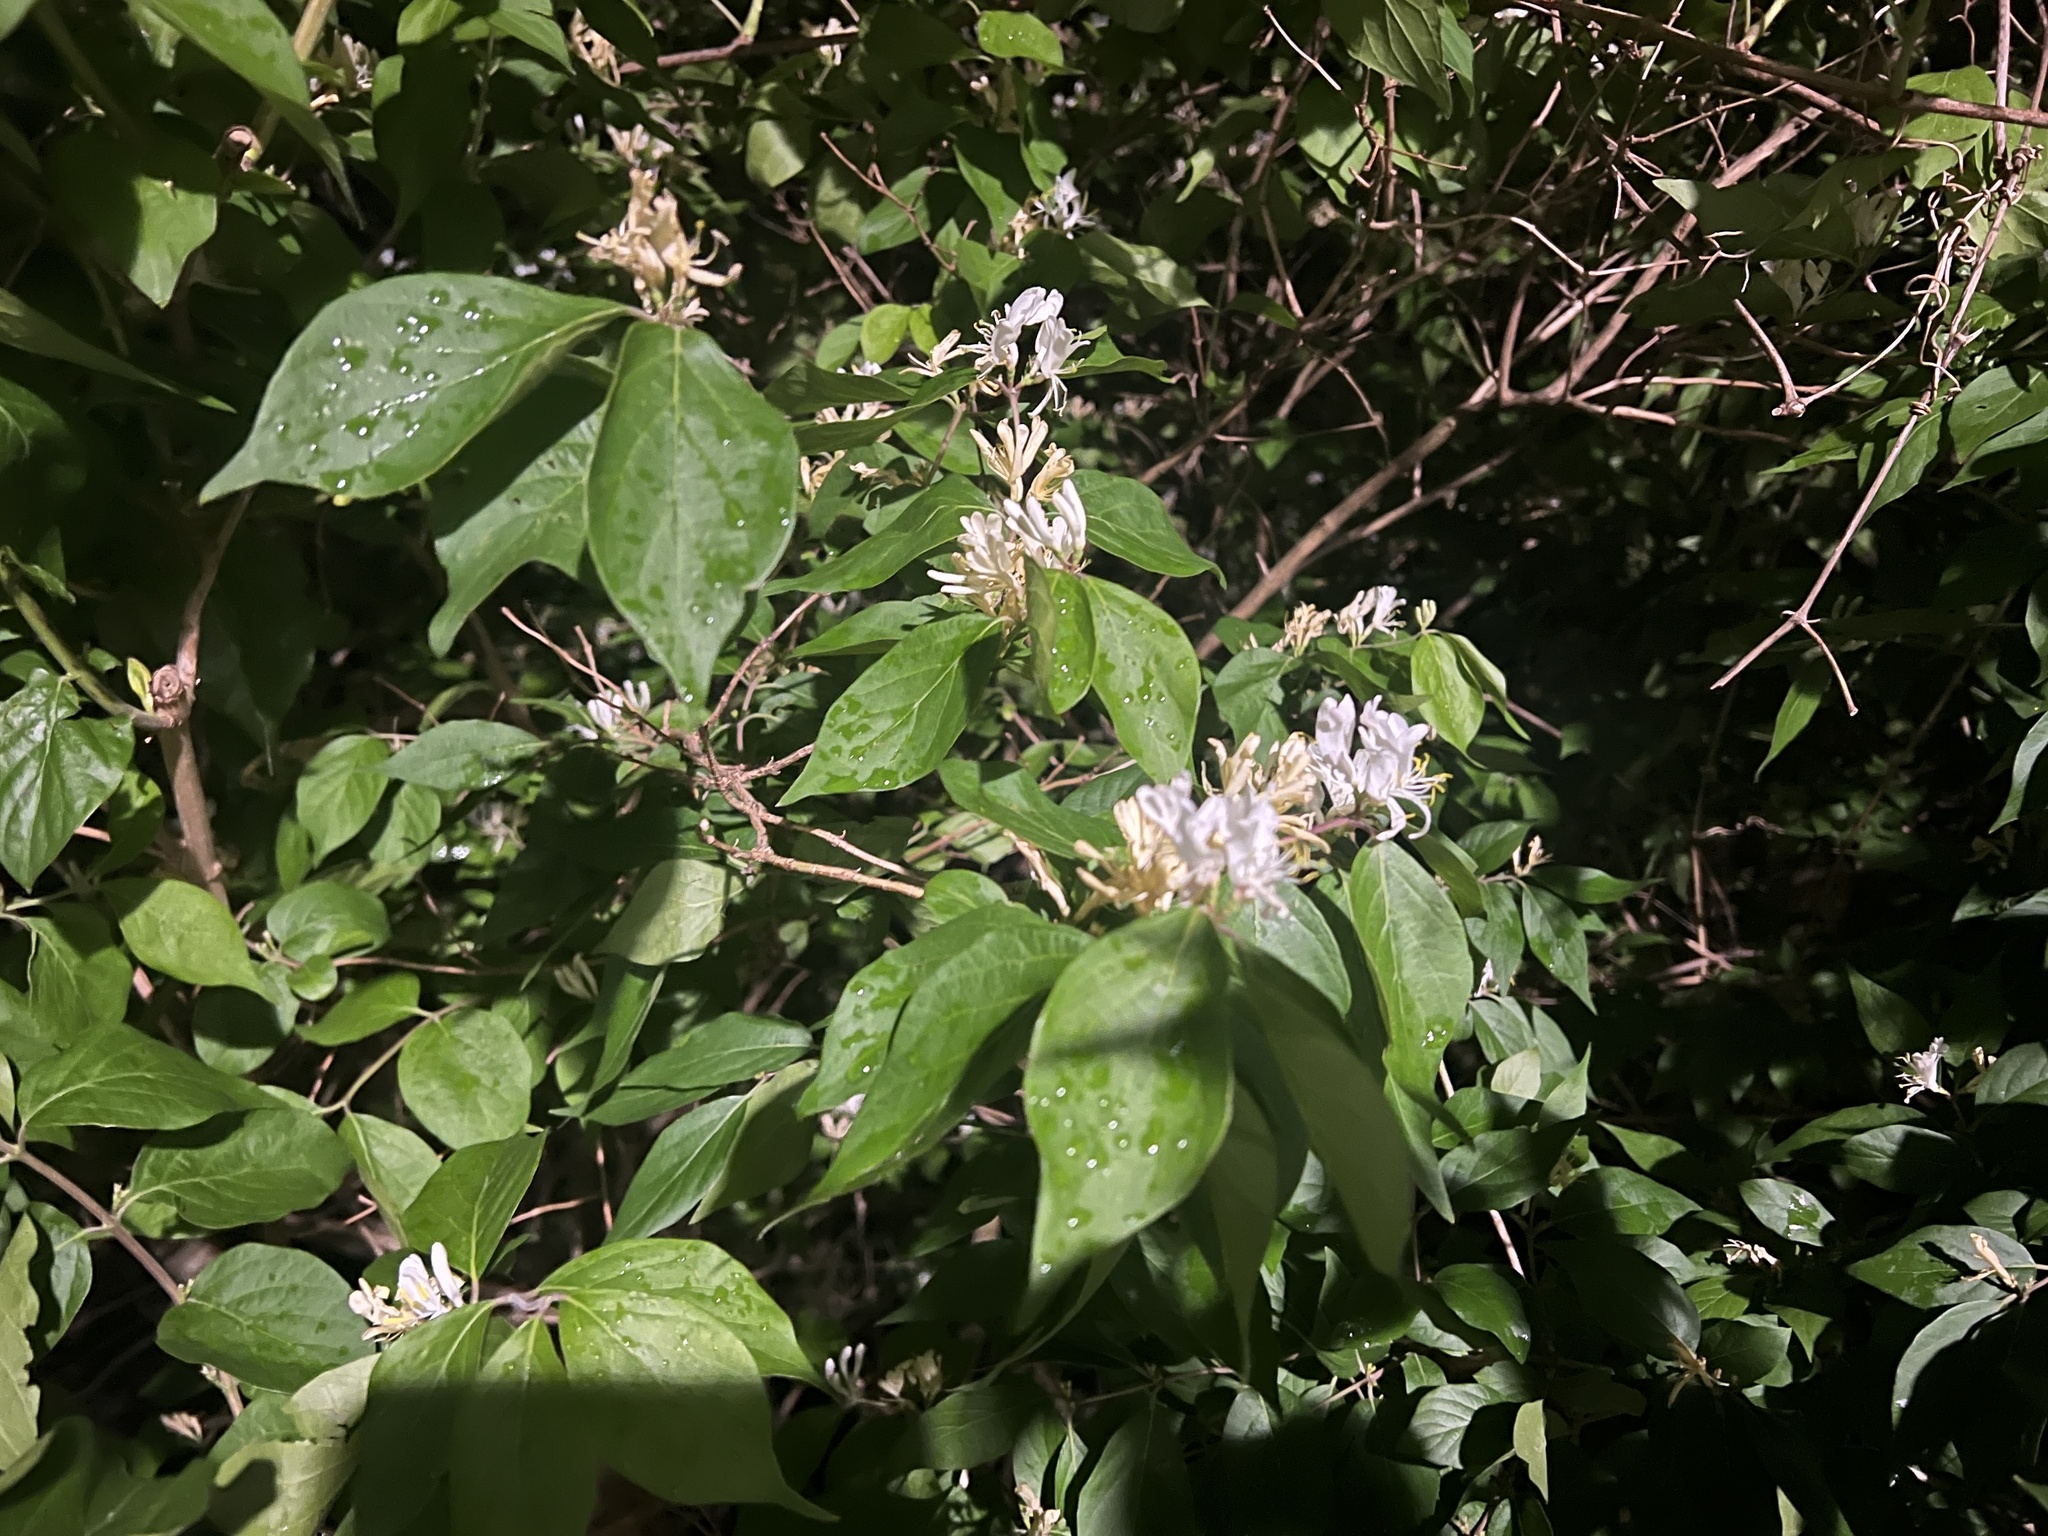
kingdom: Plantae
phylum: Tracheophyta
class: Magnoliopsida
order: Dipsacales
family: Caprifoliaceae
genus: Lonicera
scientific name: Lonicera maackii
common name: Amur honeysuckle
